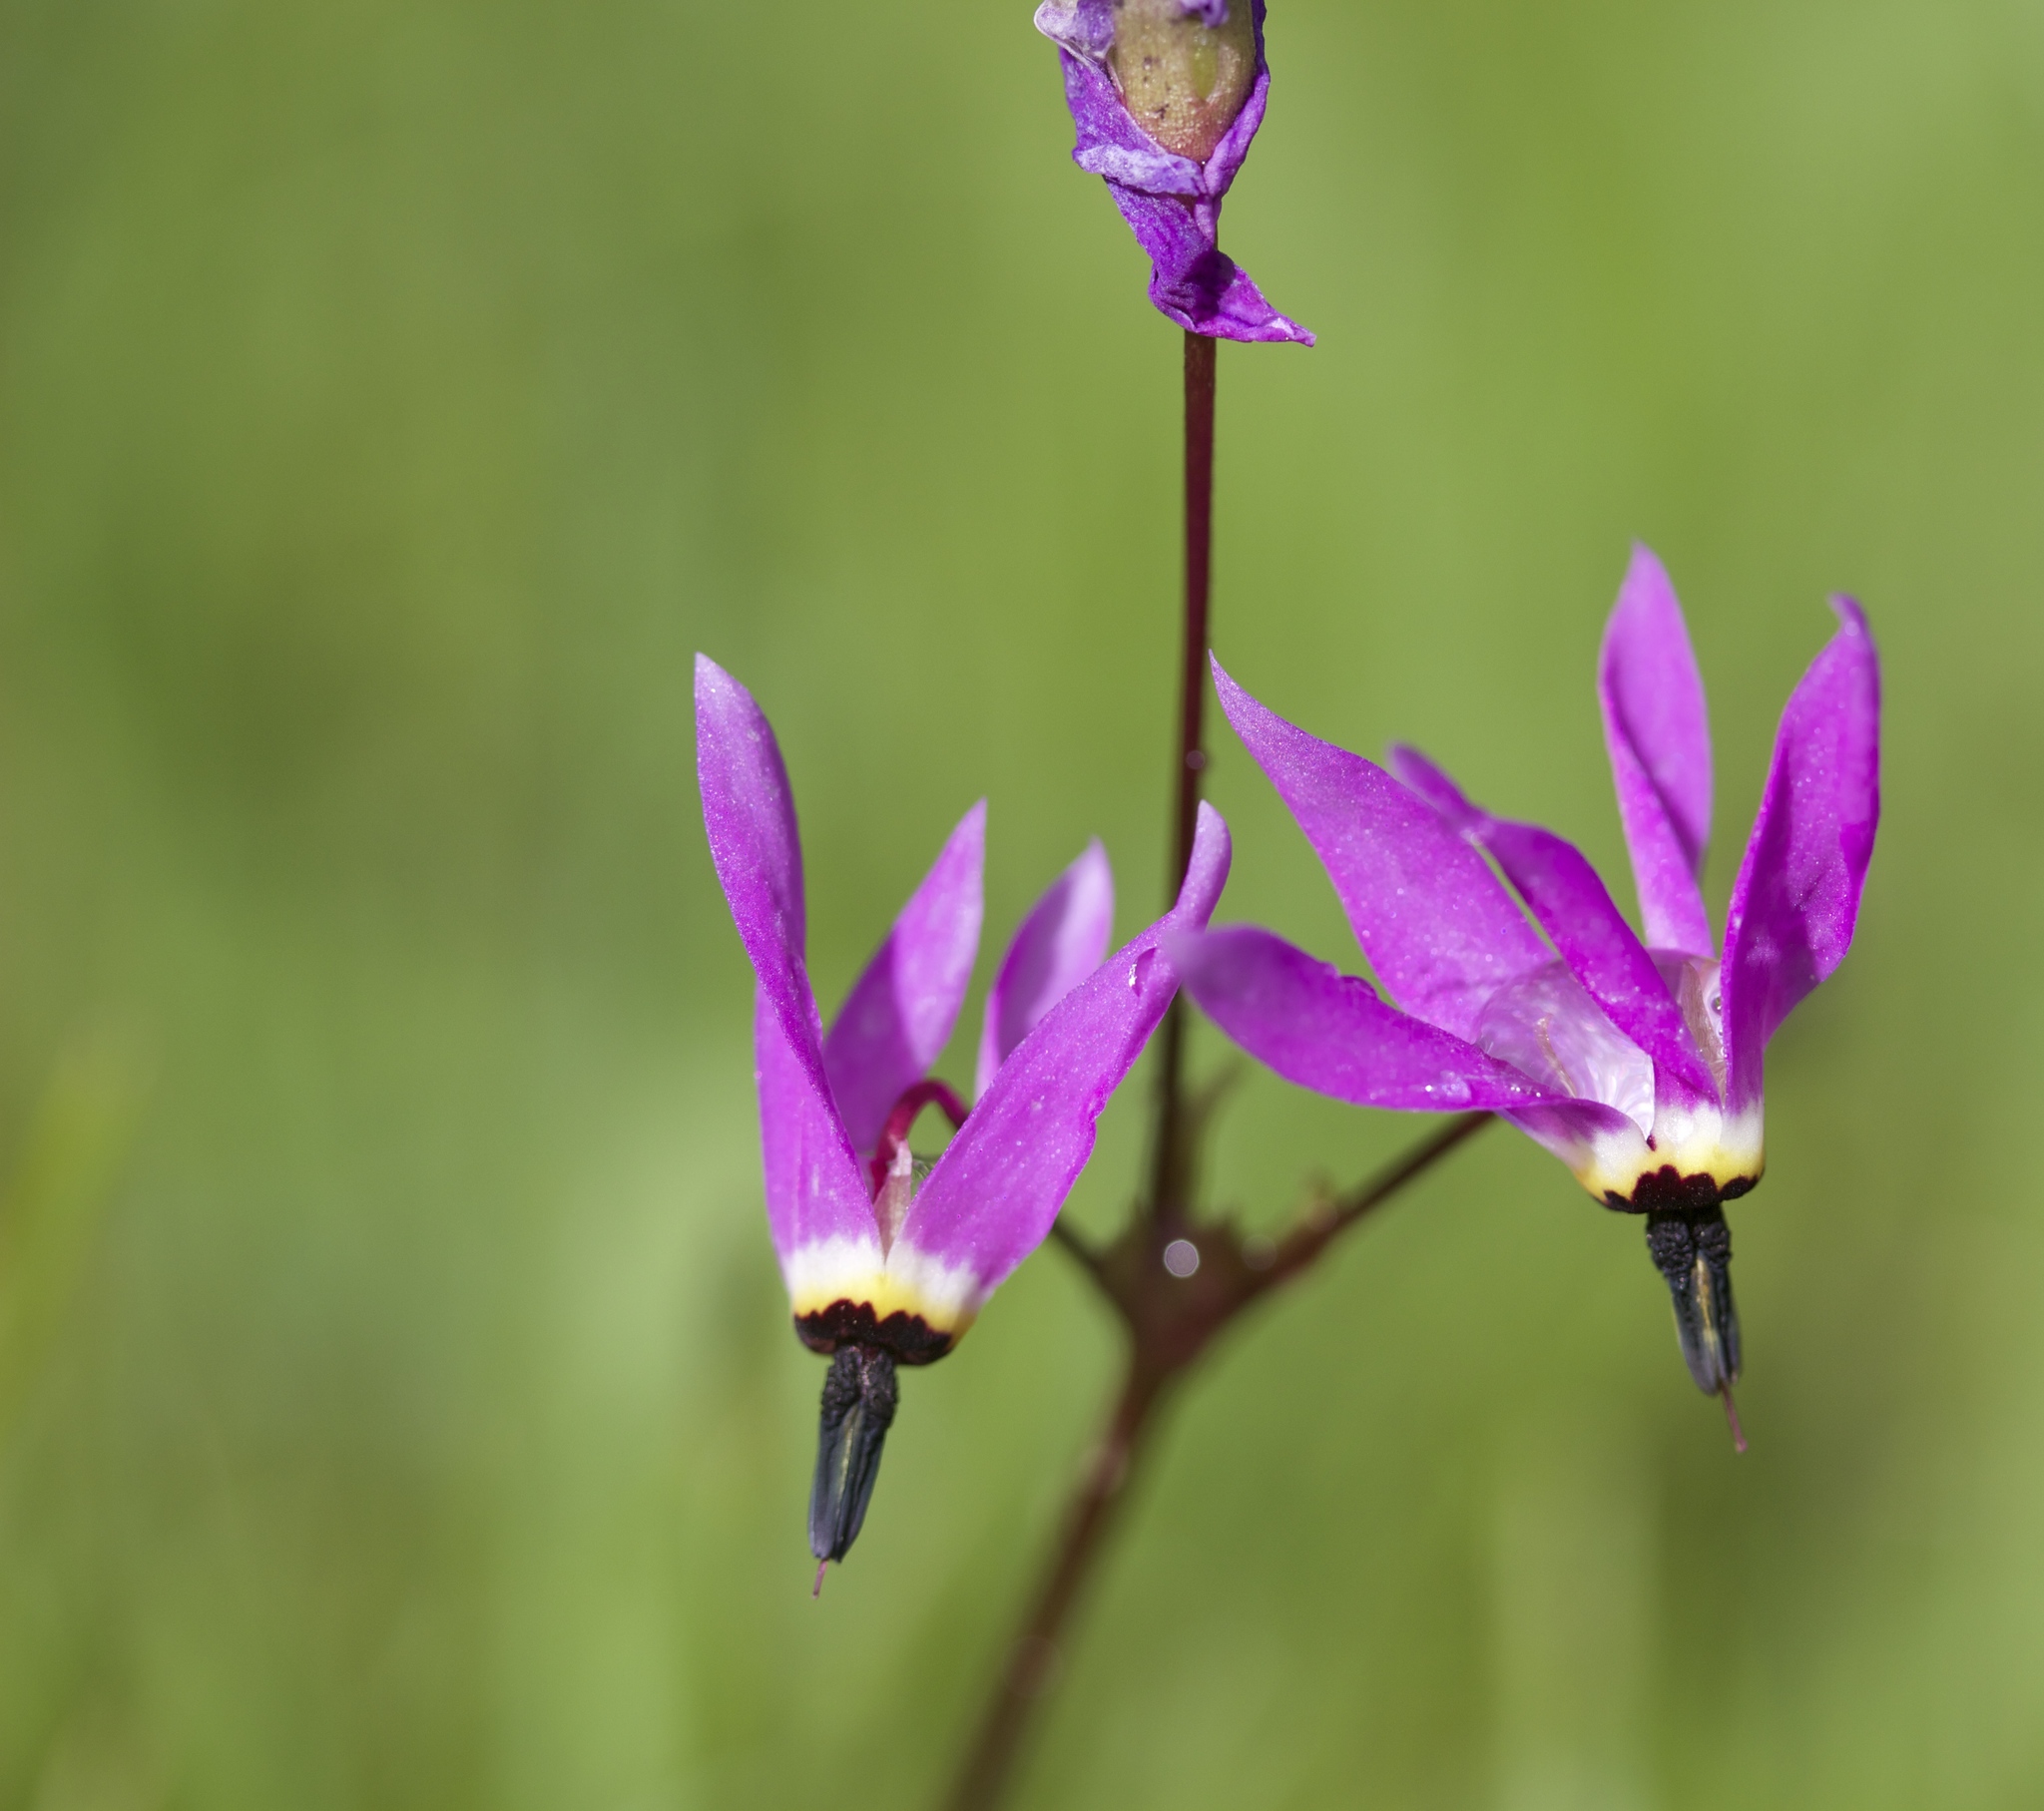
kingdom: Plantae
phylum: Tracheophyta
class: Magnoliopsida
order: Ericales
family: Primulaceae
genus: Dodecatheon
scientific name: Dodecatheon hendersonii
